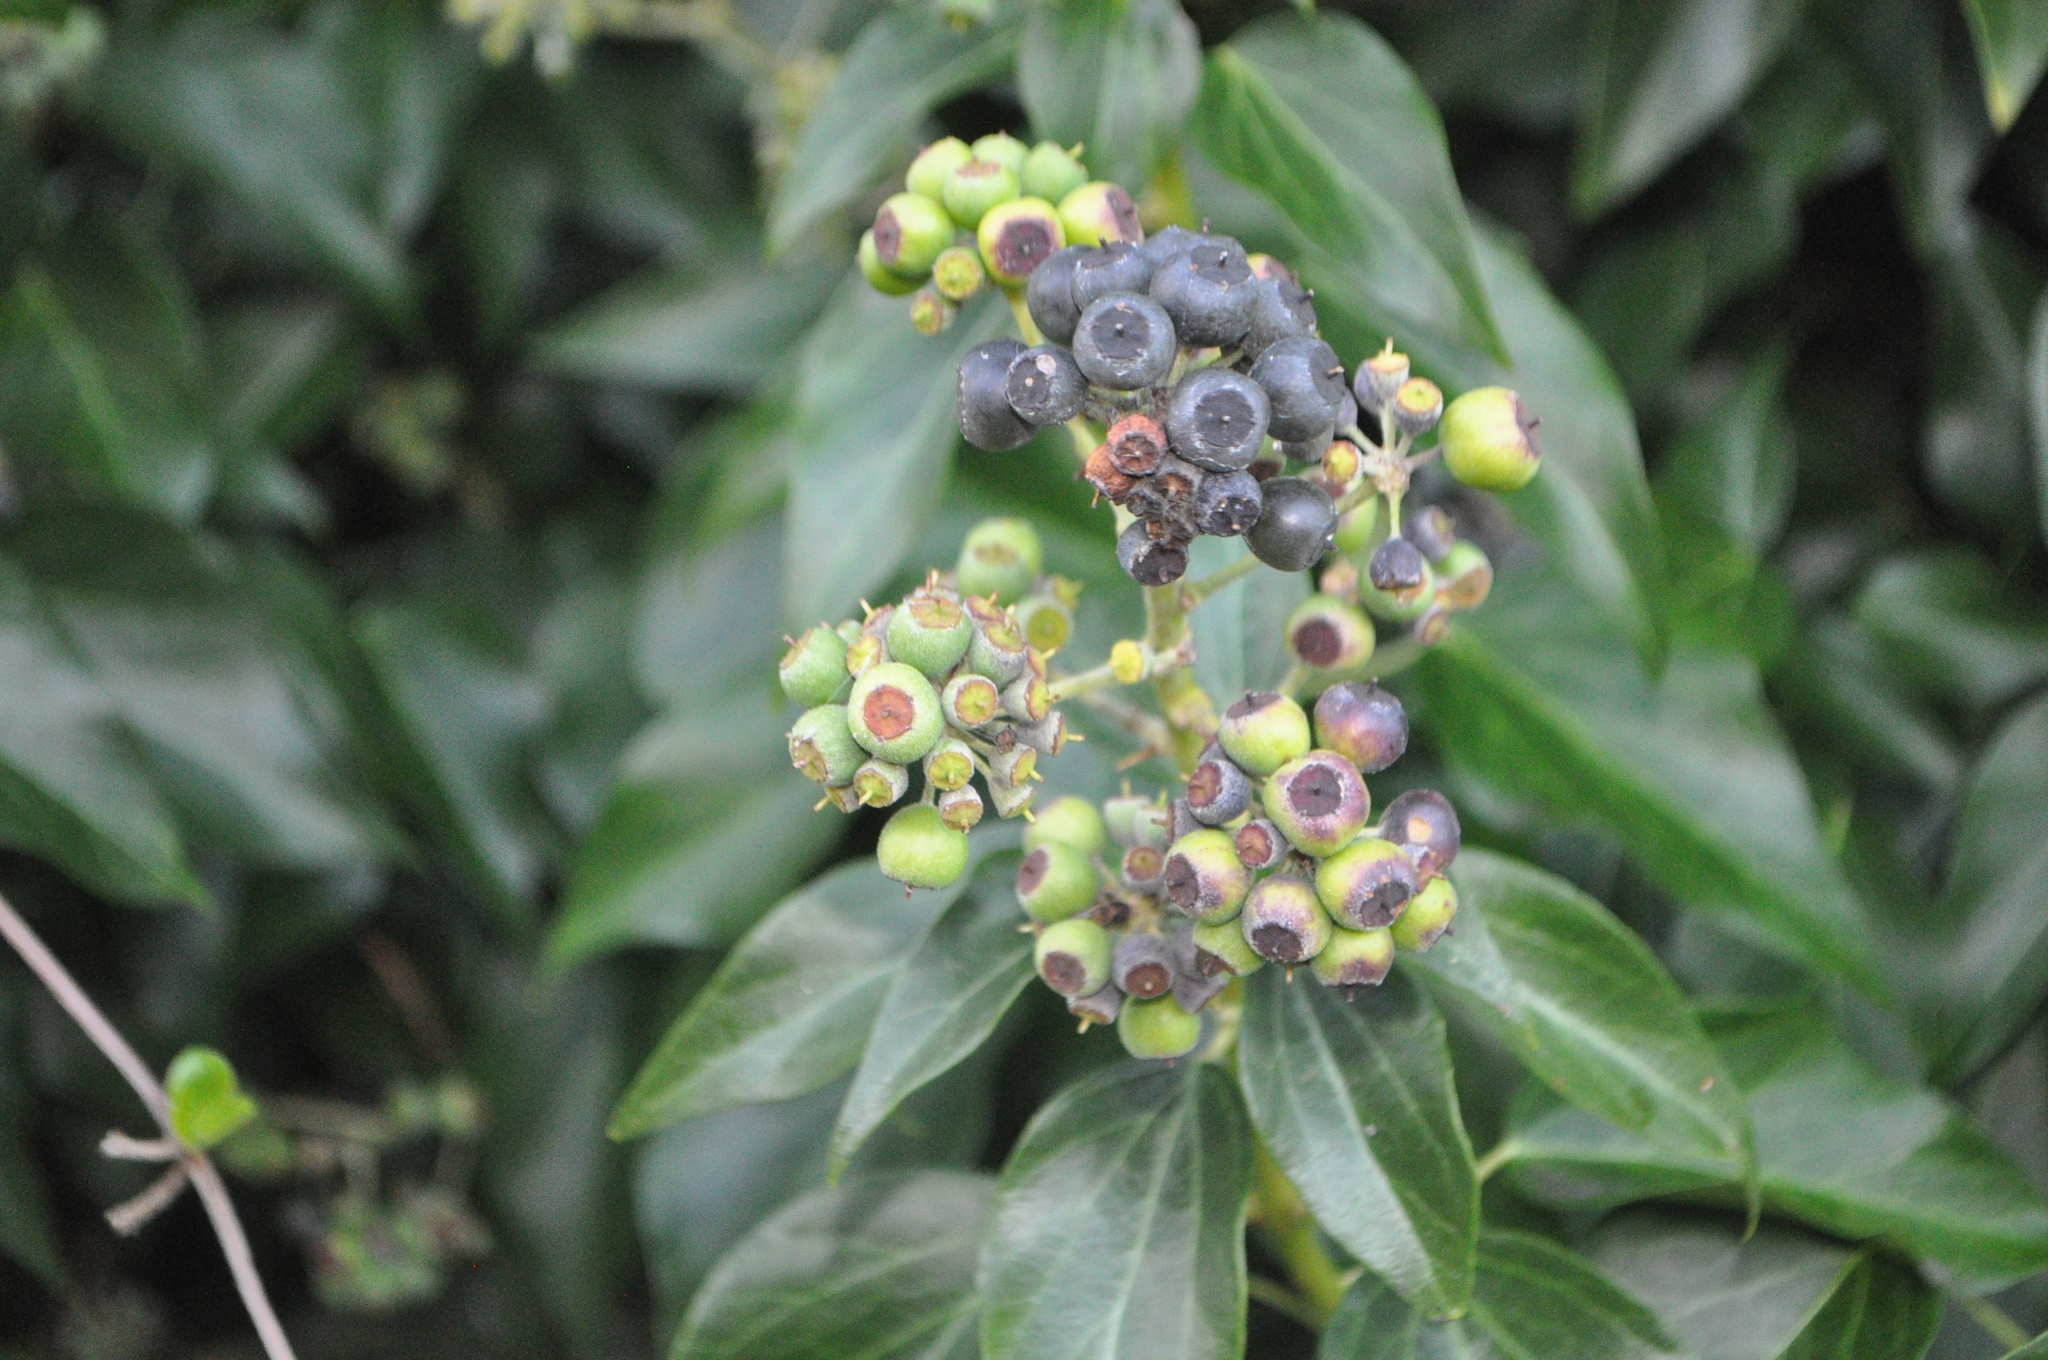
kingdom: Plantae
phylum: Tracheophyta
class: Magnoliopsida
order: Apiales
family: Araliaceae
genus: Hedera
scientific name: Hedera helix
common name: Ivy
